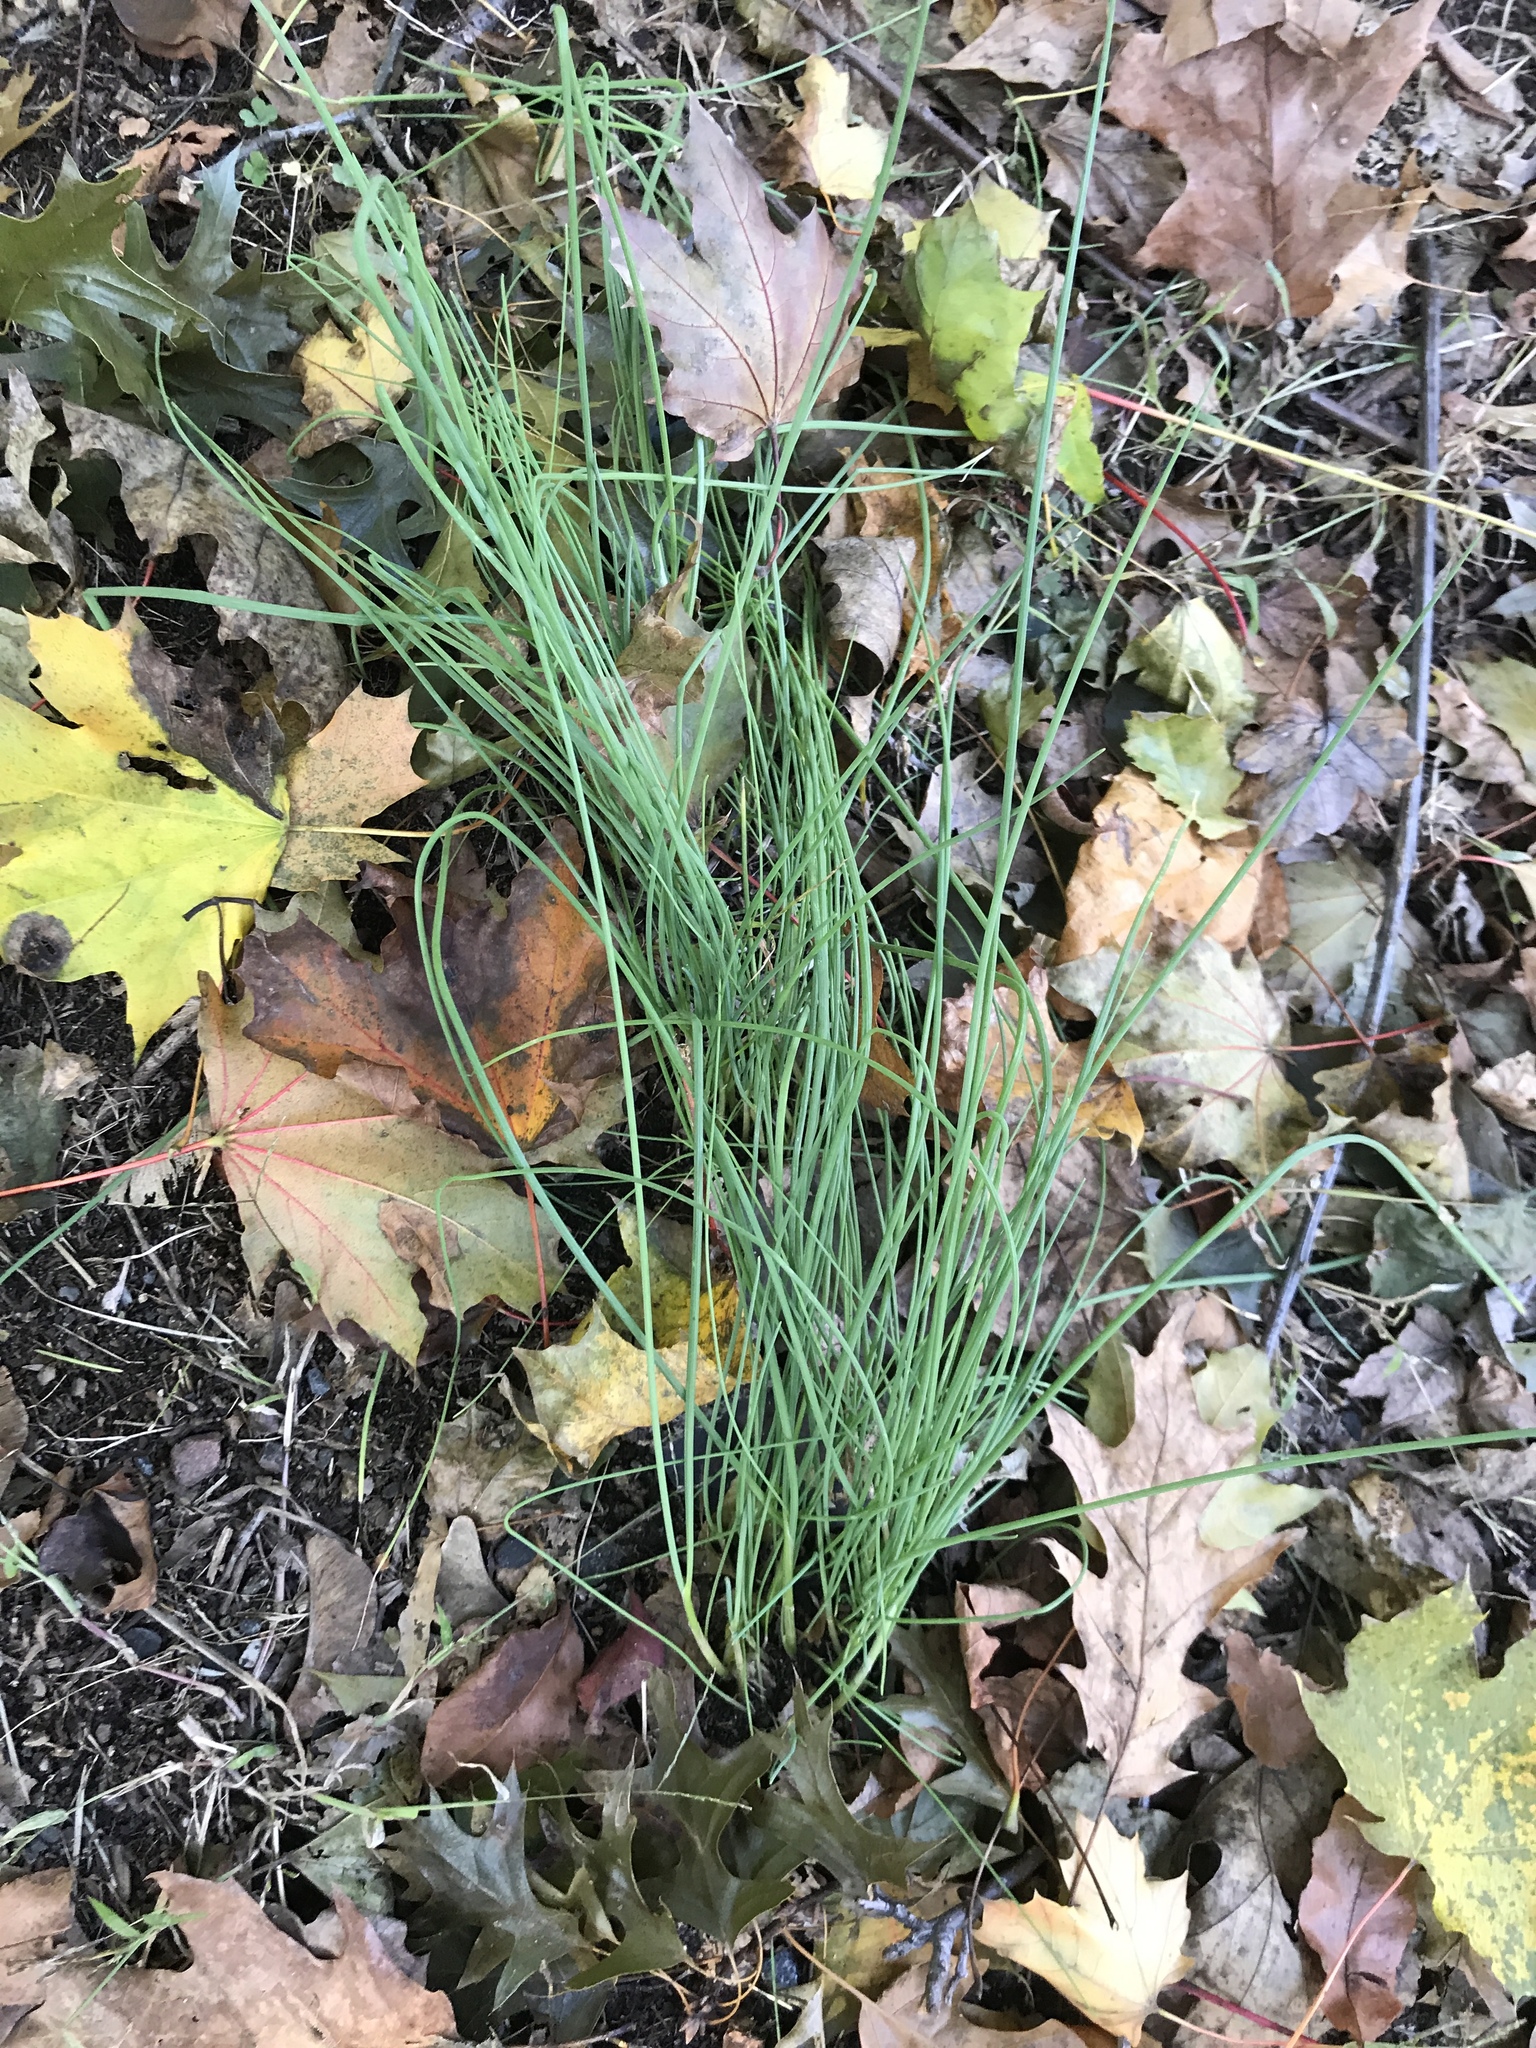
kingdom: Plantae
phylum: Tracheophyta
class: Liliopsida
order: Asparagales
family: Amaryllidaceae
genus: Allium
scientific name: Allium vineale
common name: Crow garlic
